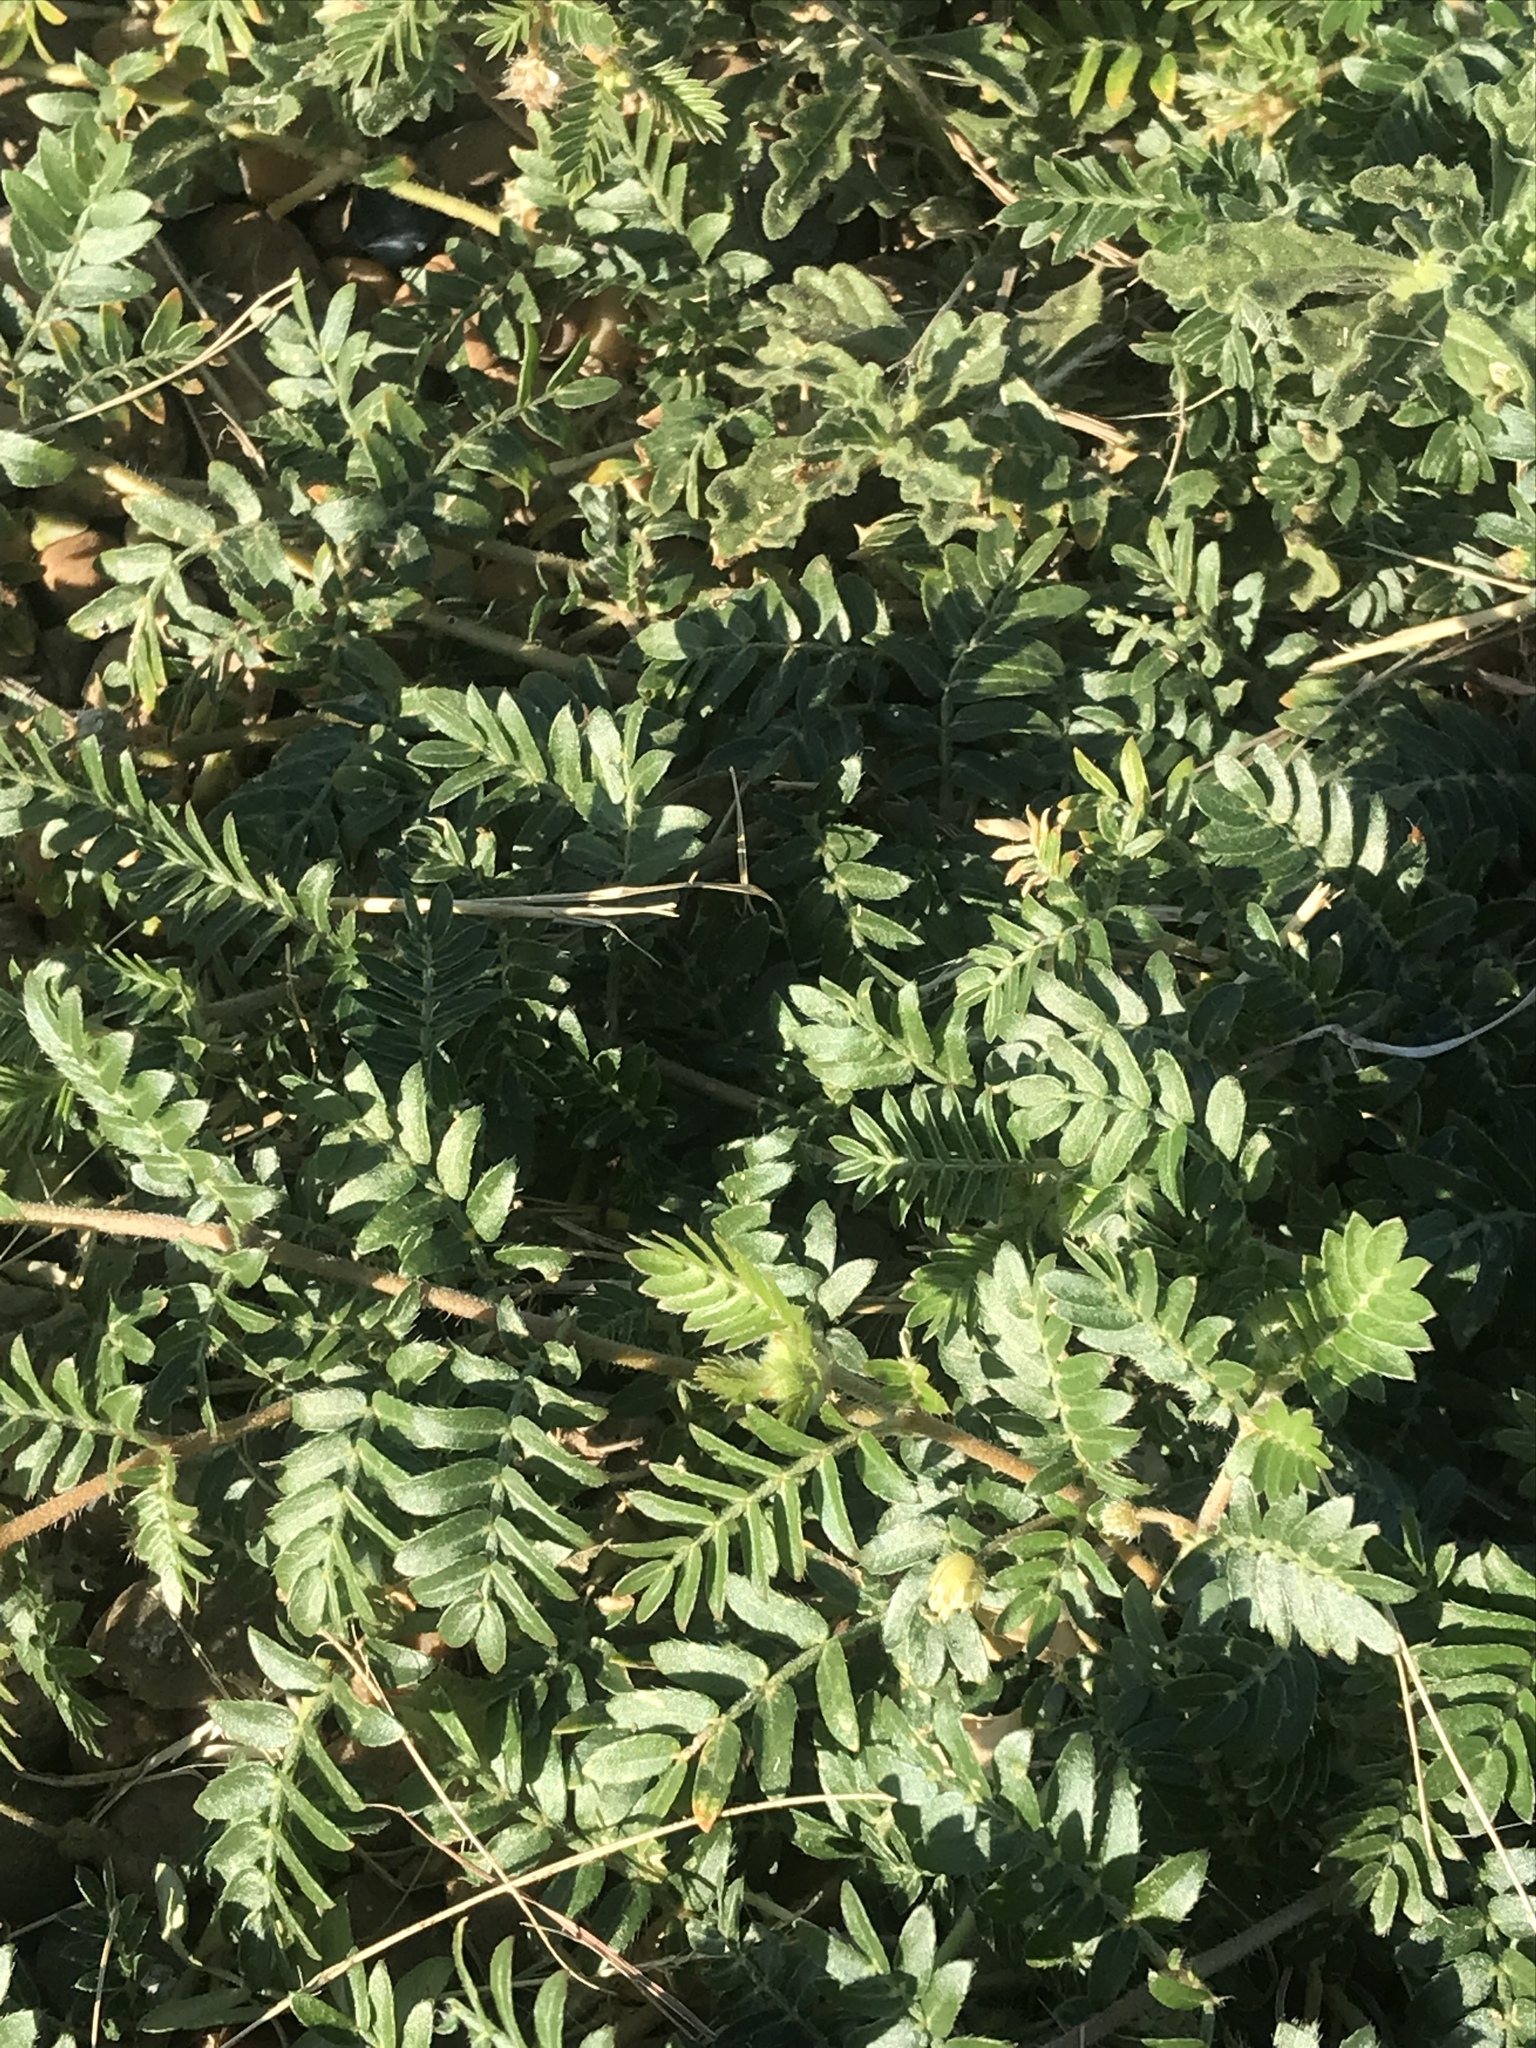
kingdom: Plantae
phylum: Tracheophyta
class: Magnoliopsida
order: Zygophyllales
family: Zygophyllaceae
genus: Tribulus
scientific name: Tribulus terrestris
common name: Puncturevine
